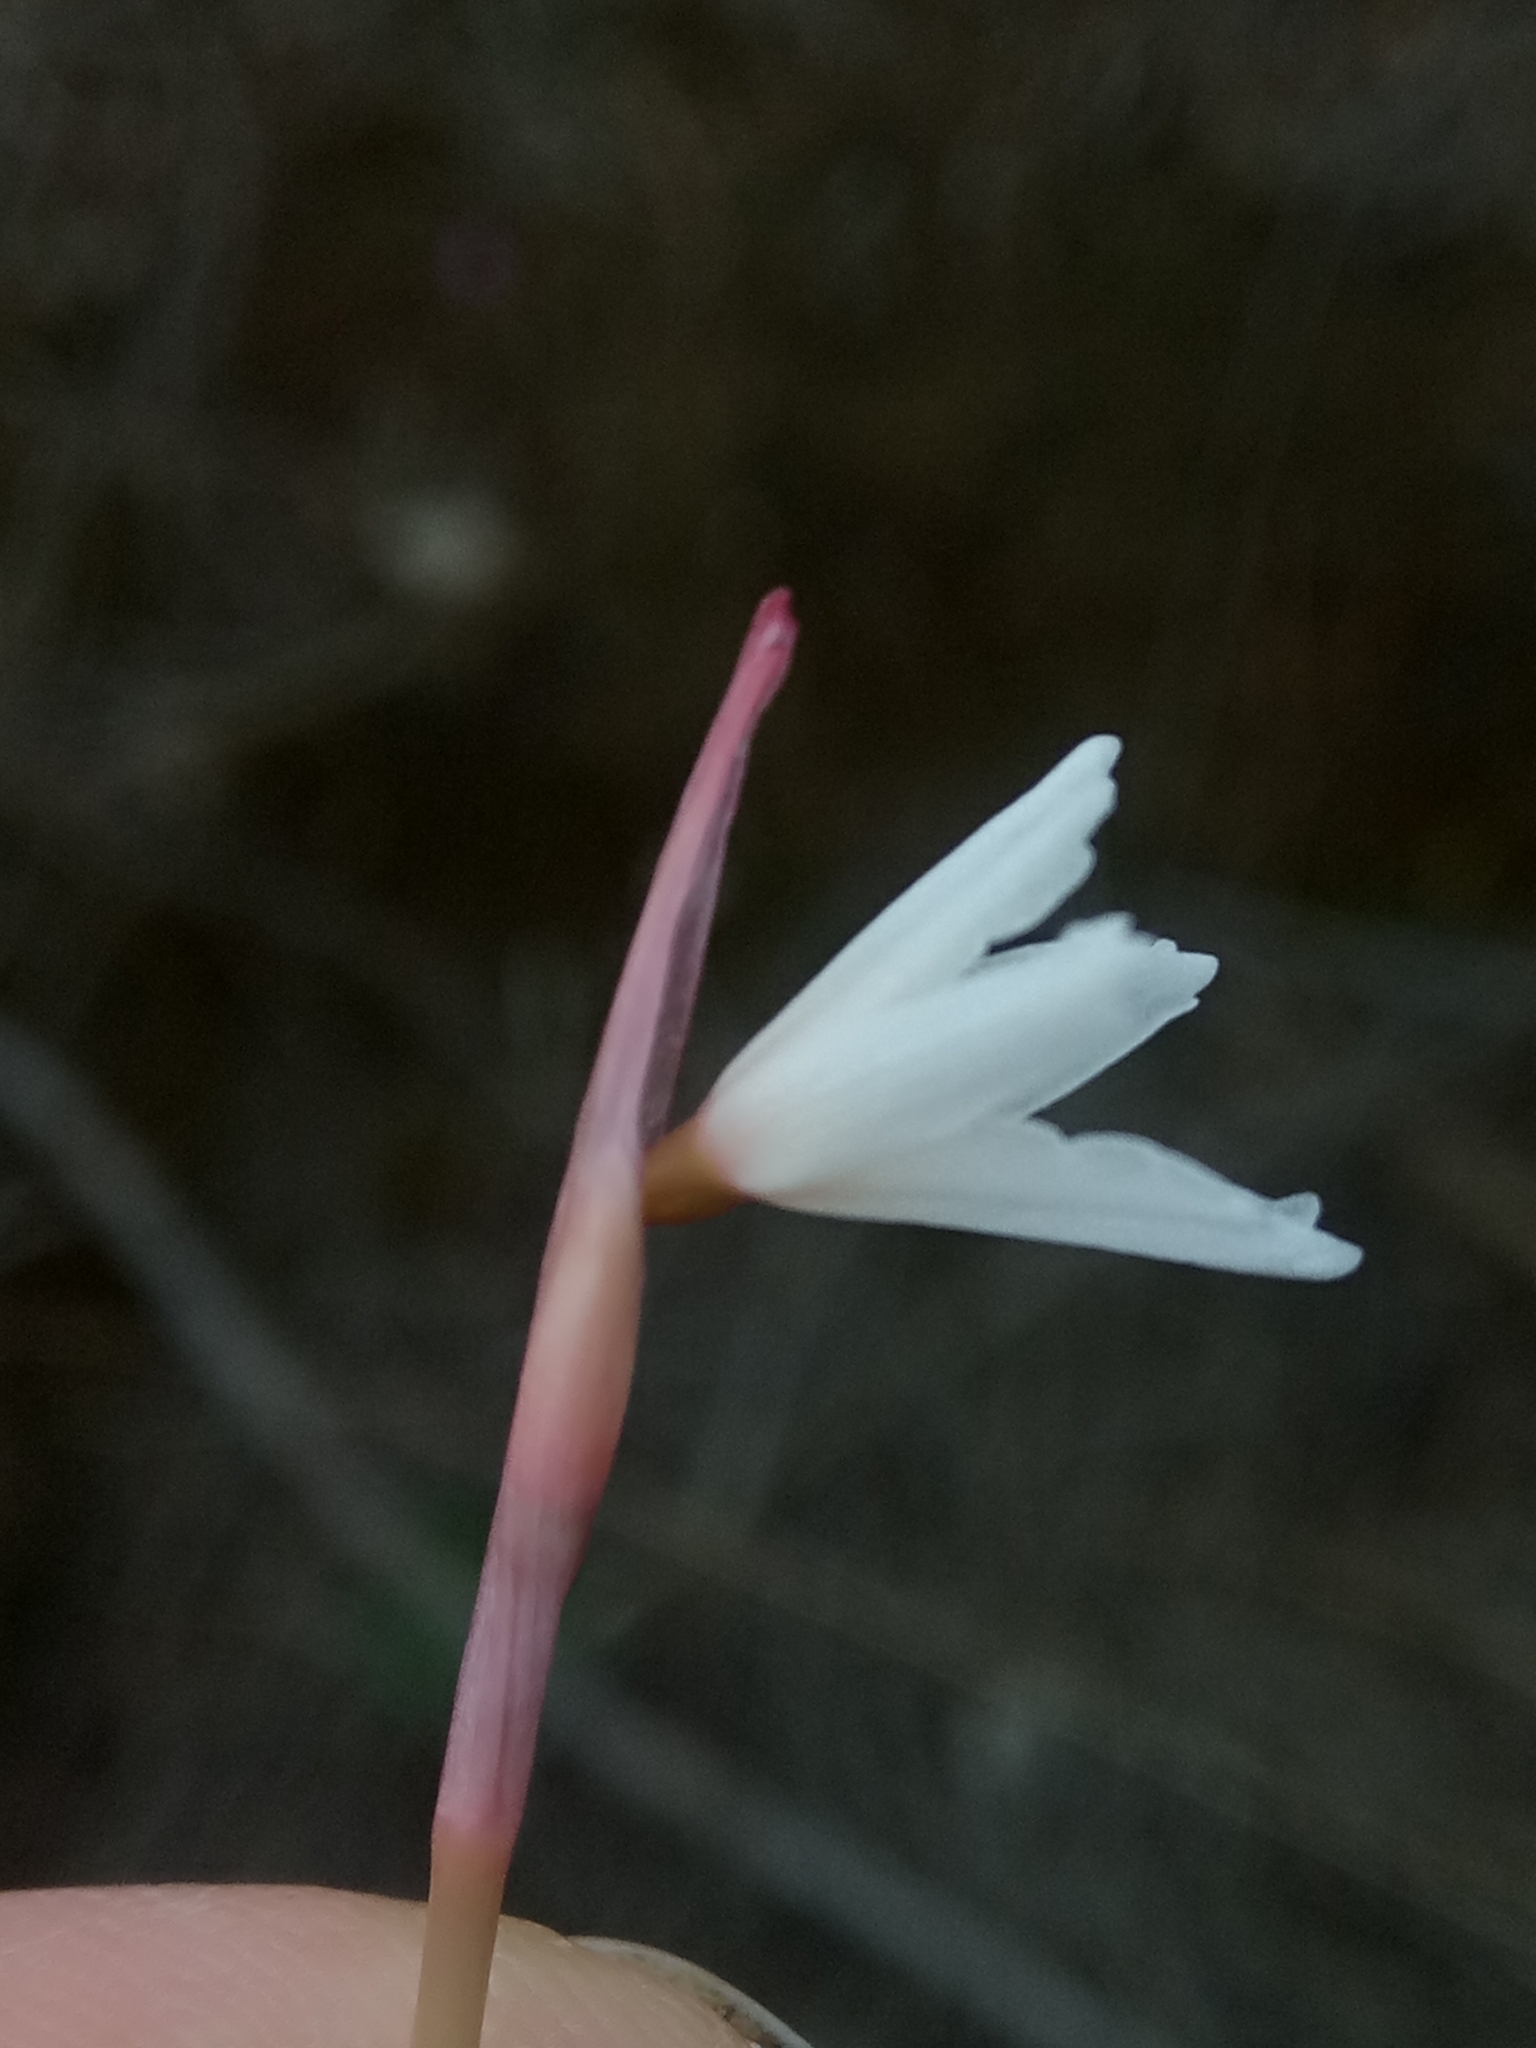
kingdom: Plantae
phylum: Tracheophyta
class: Liliopsida
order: Asparagales
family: Amaryllidaceae
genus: Acis
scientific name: Acis autumnalis
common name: Autumn snowflake
